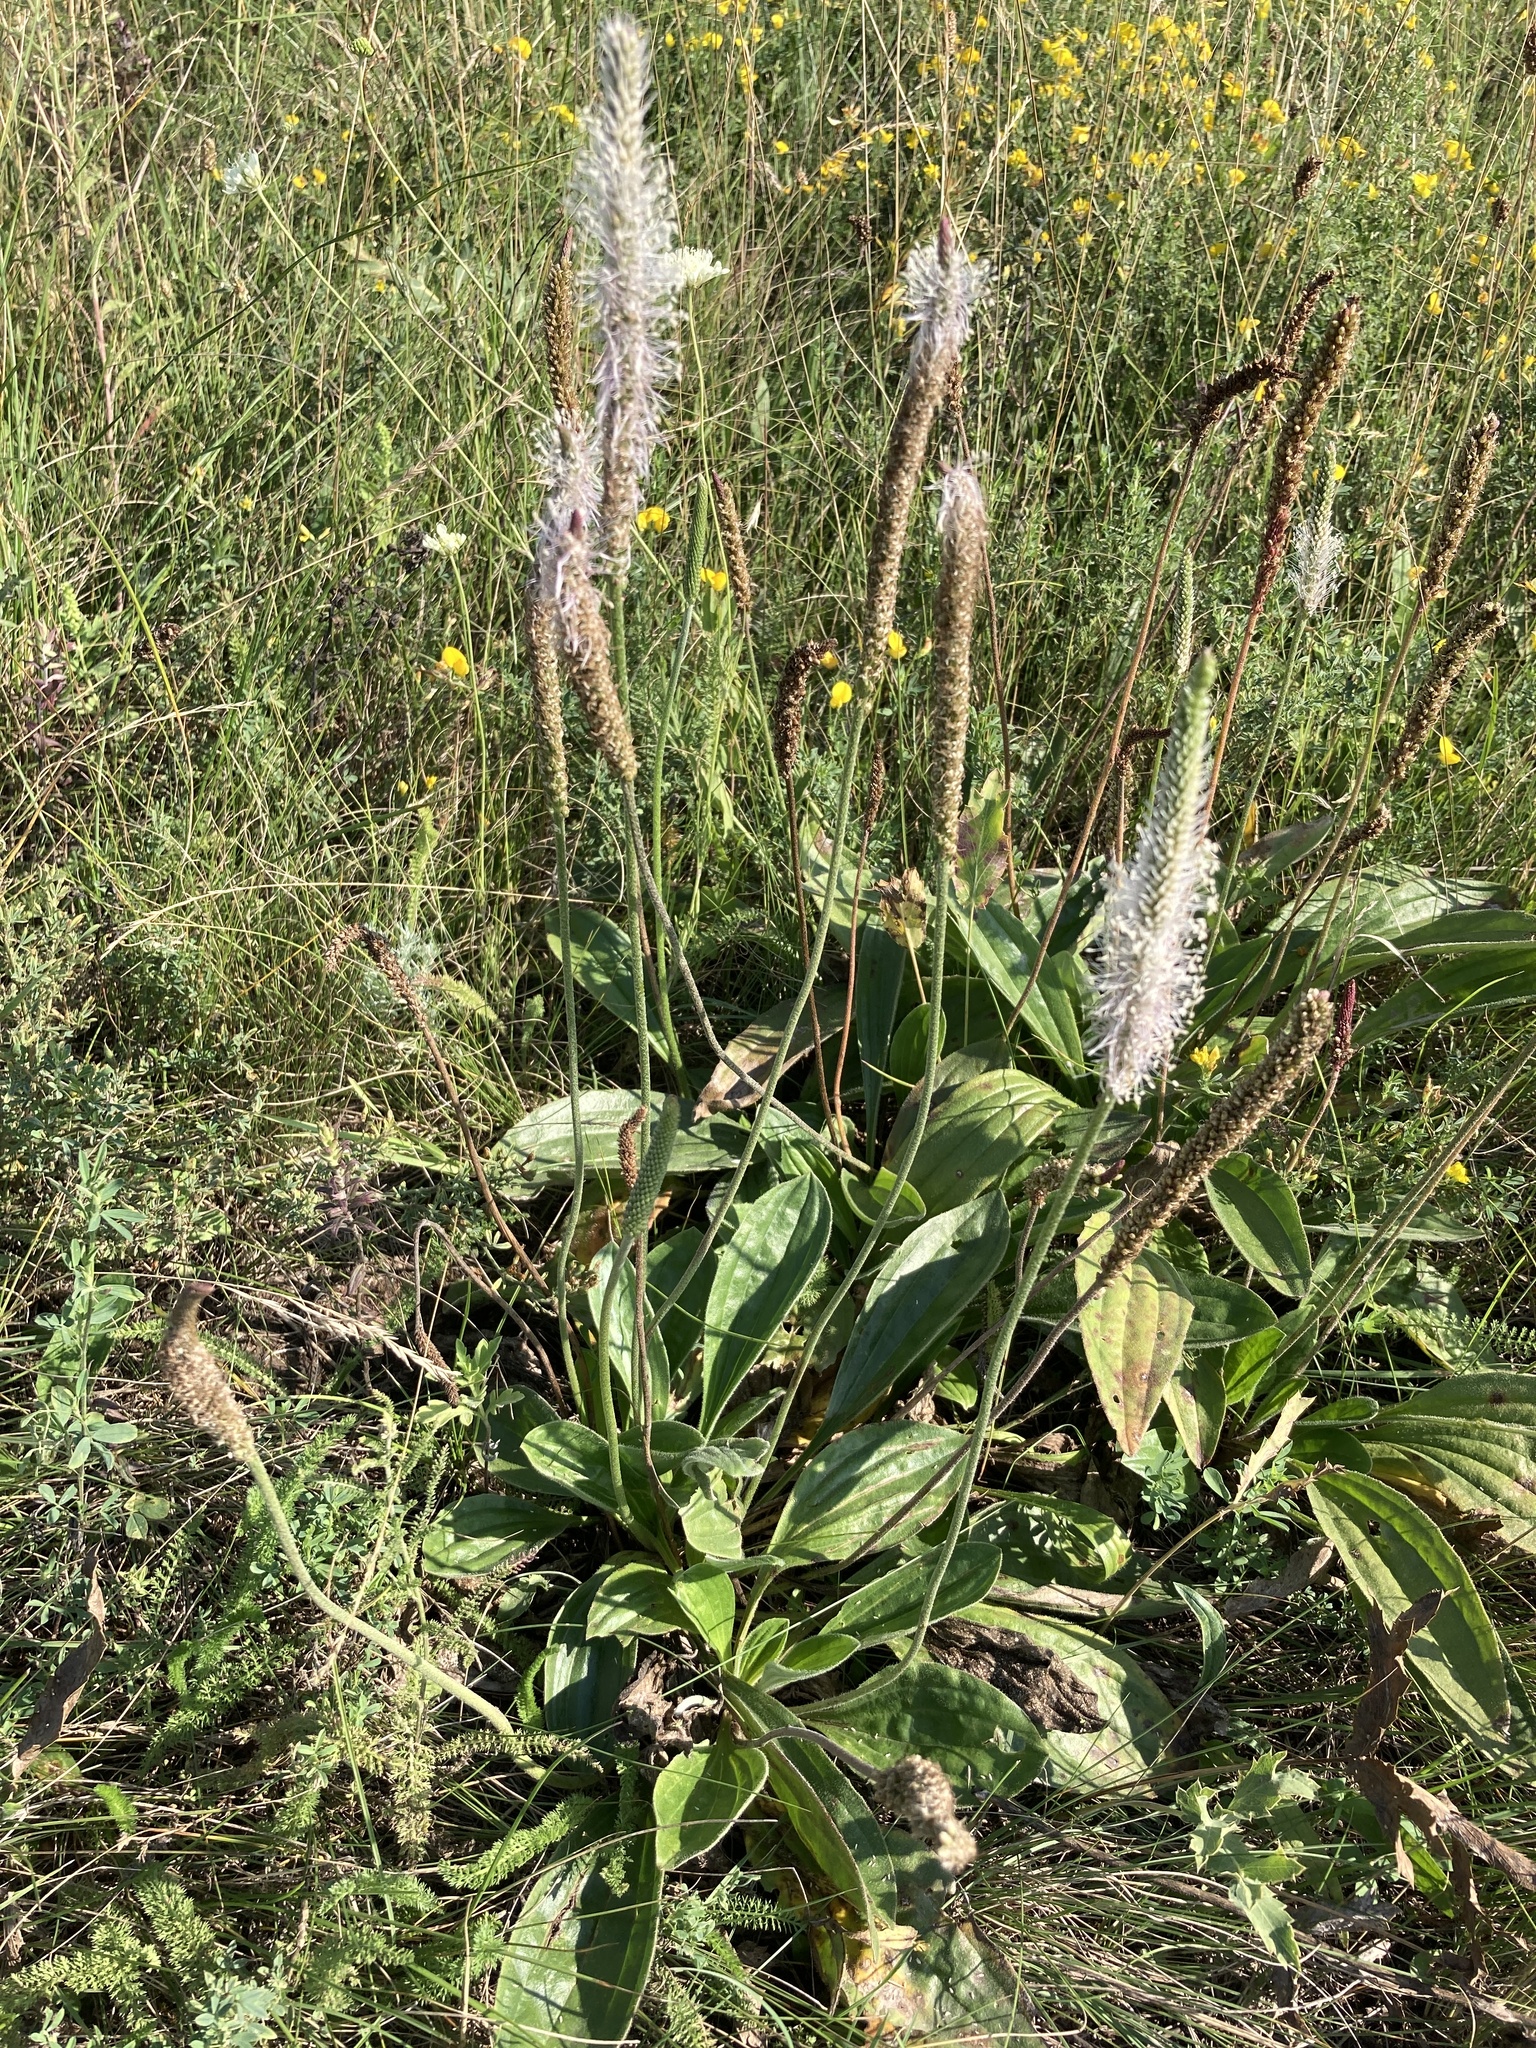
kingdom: Plantae
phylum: Tracheophyta
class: Magnoliopsida
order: Lamiales
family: Plantaginaceae
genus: Plantago
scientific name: Plantago urvillei
